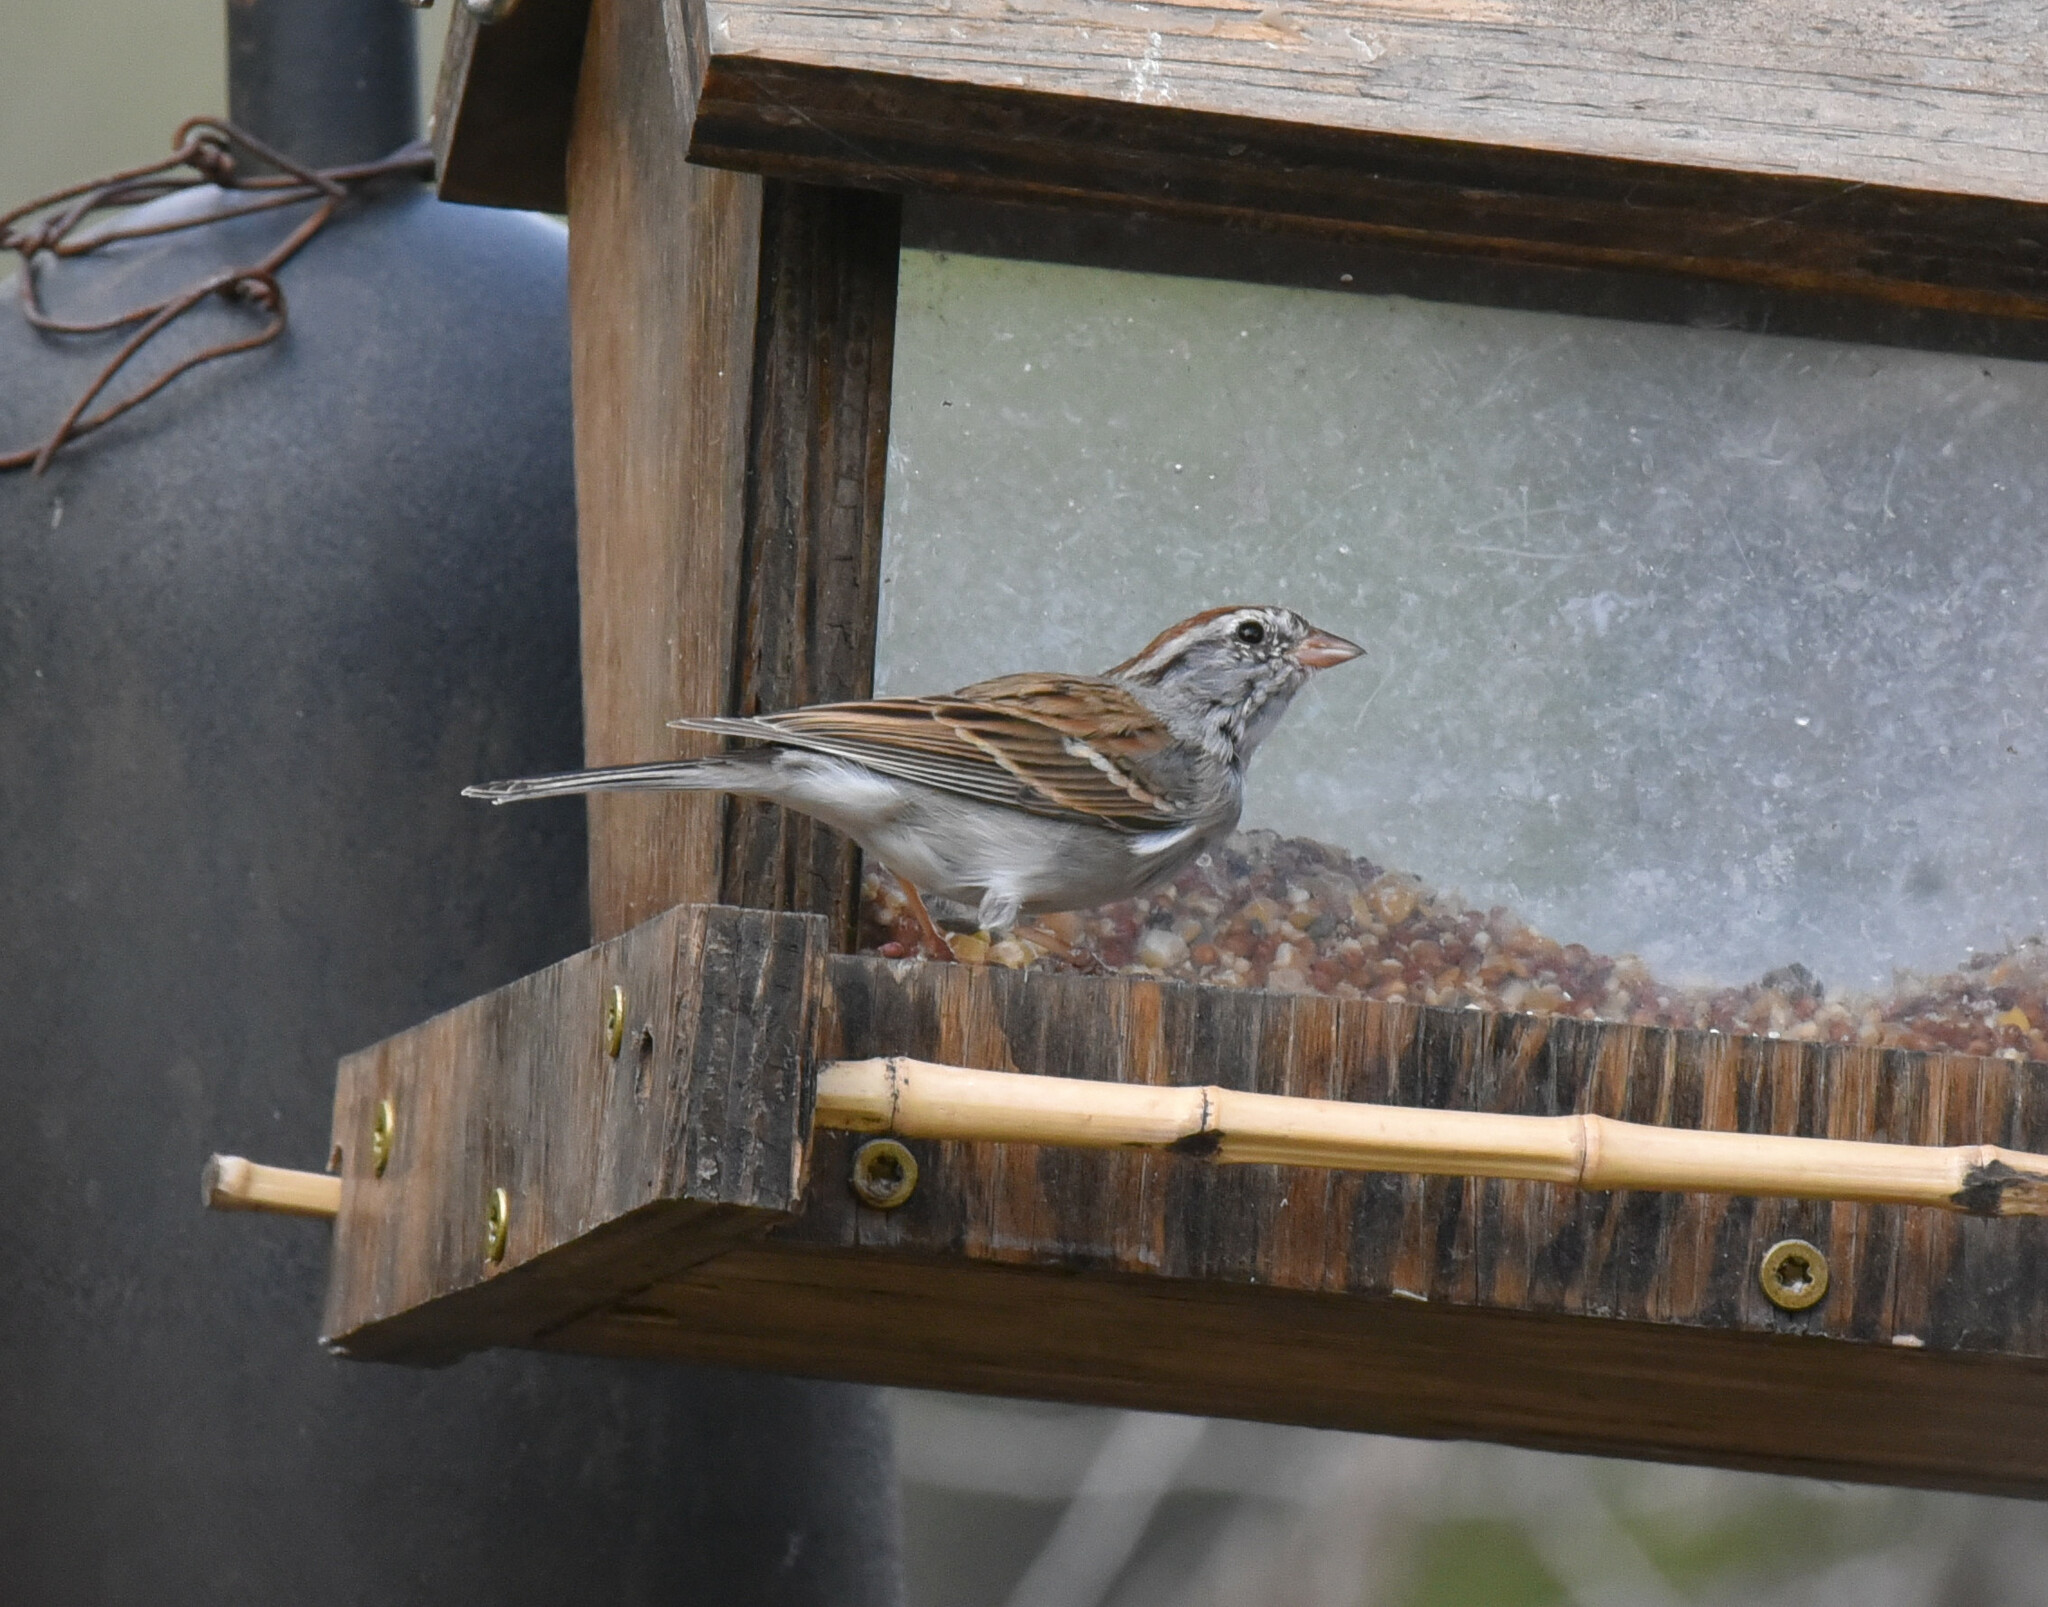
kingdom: Animalia
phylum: Chordata
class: Aves
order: Passeriformes
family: Passerellidae
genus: Spizella
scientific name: Spizella passerina
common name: Chipping sparrow
